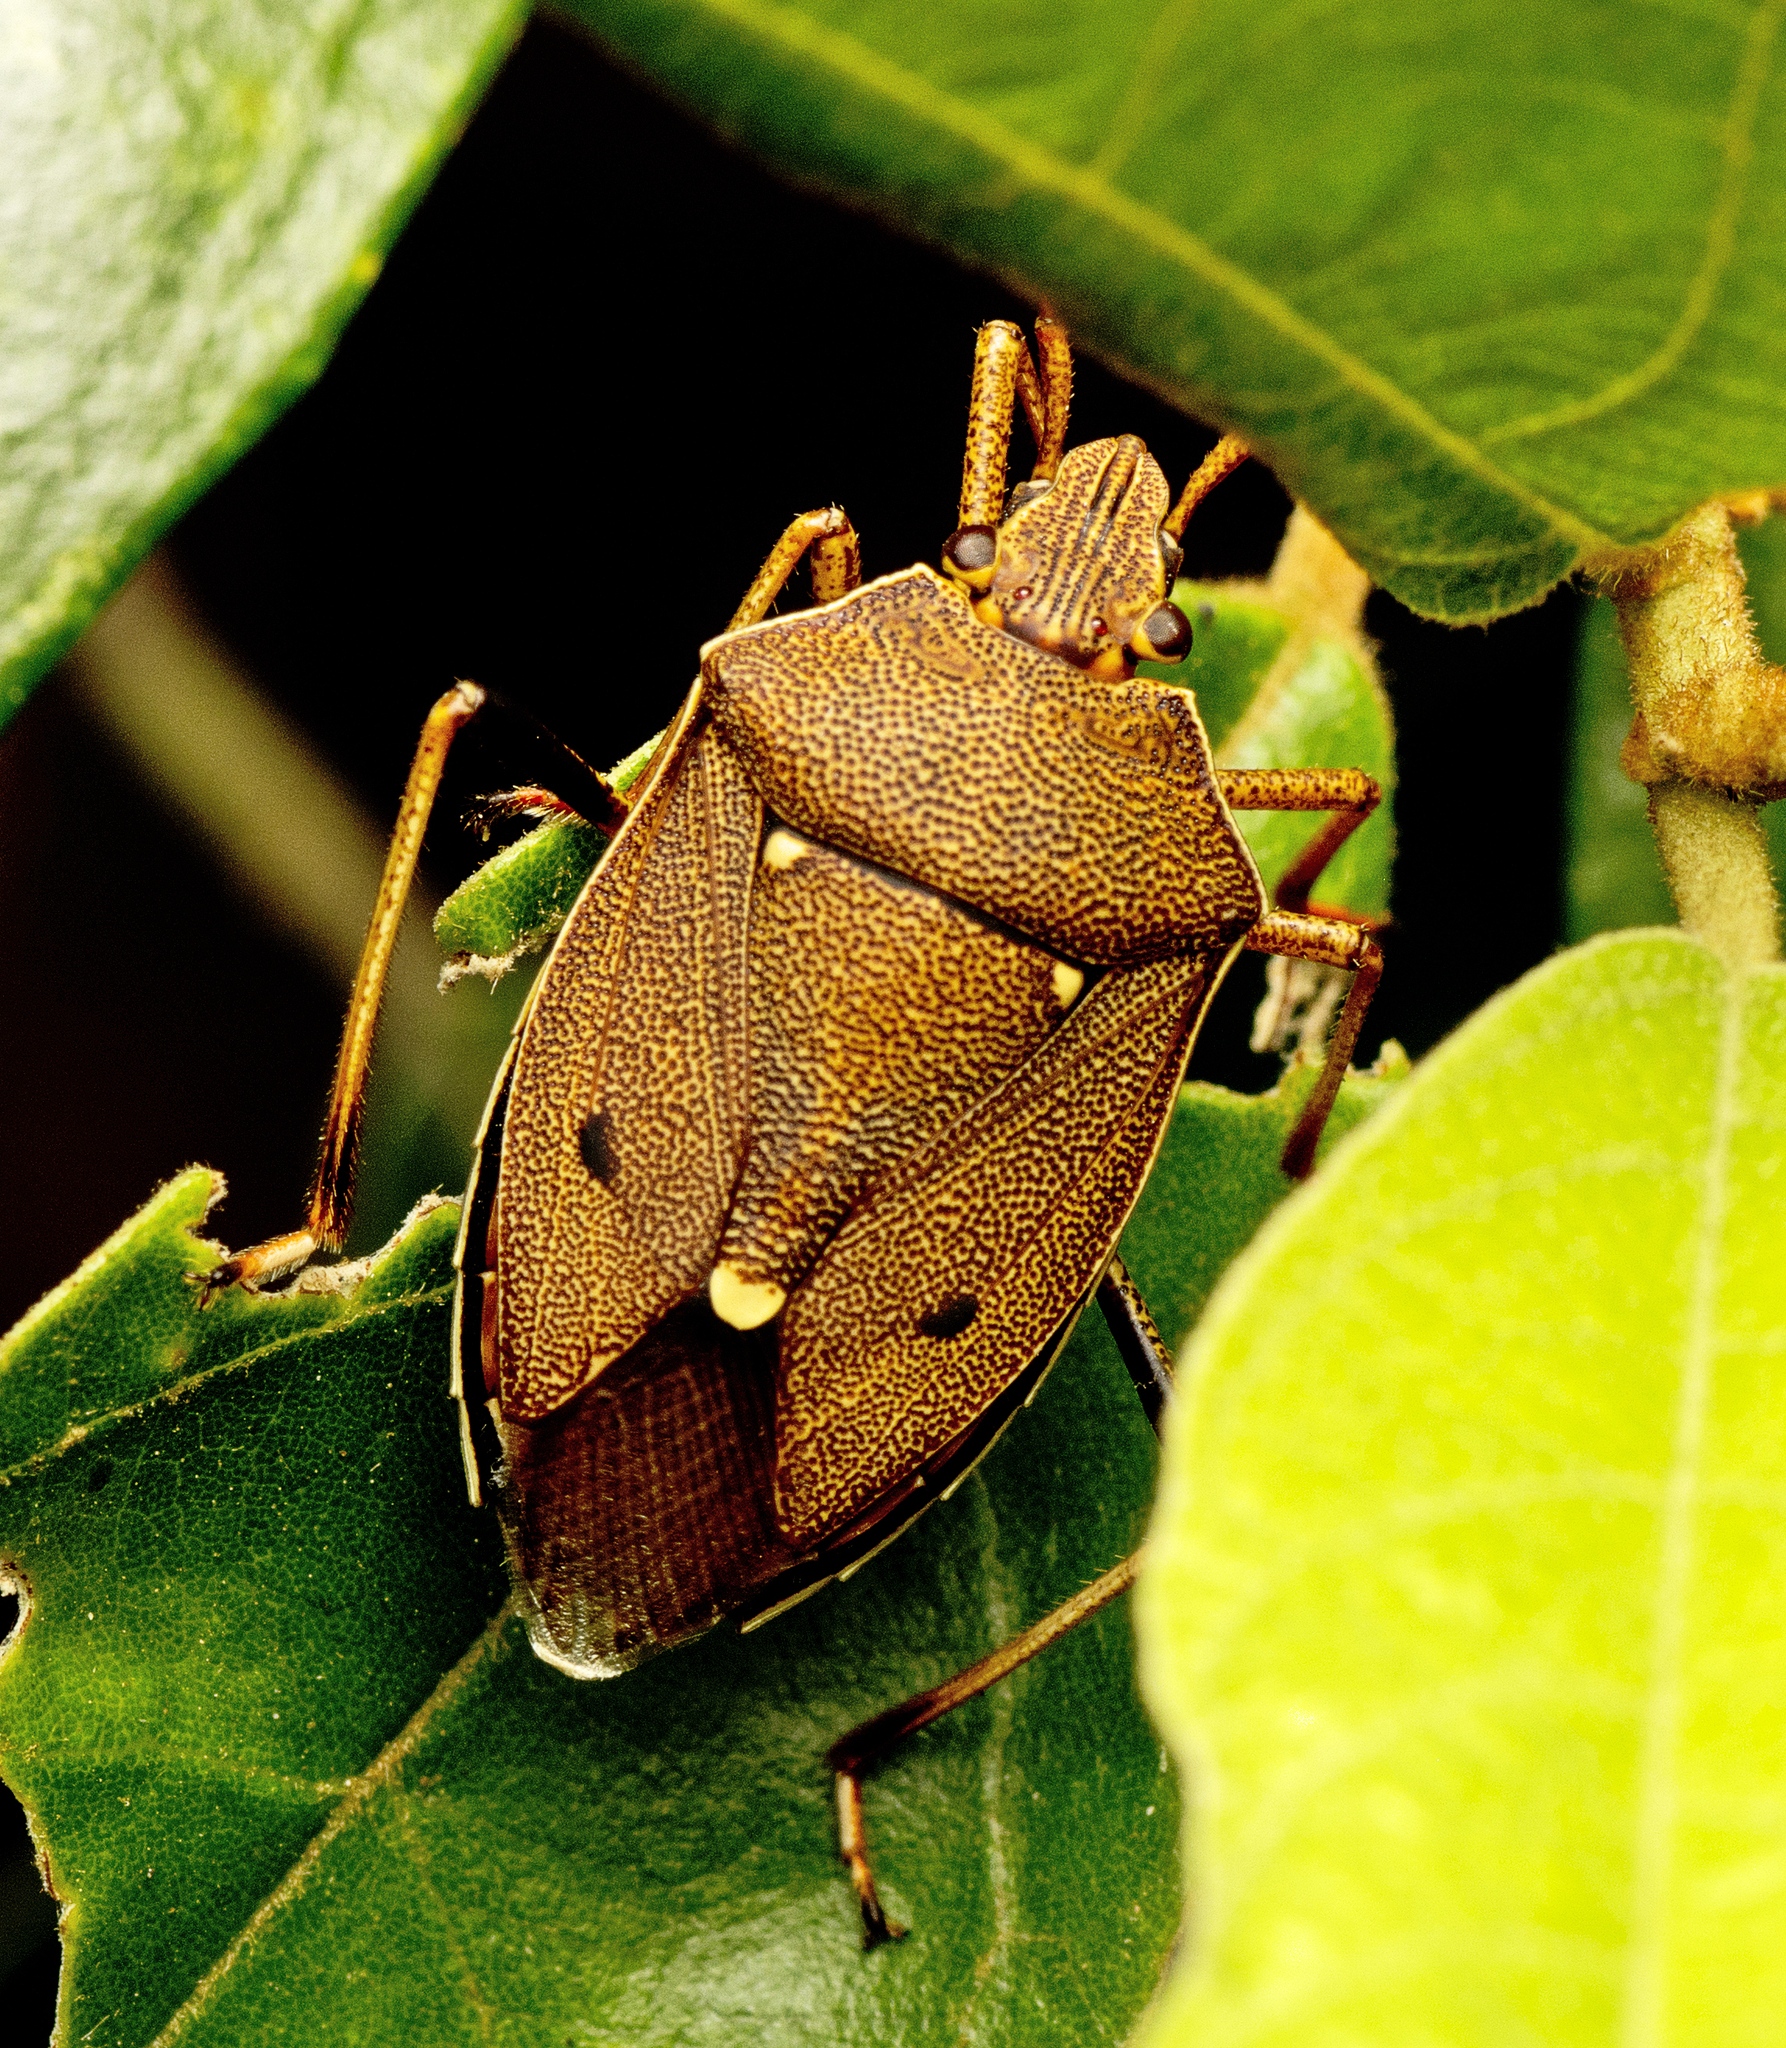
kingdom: Animalia
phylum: Arthropoda
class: Insecta
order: Hemiptera
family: Pentatomidae
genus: Poecilometis
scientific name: Poecilometis
